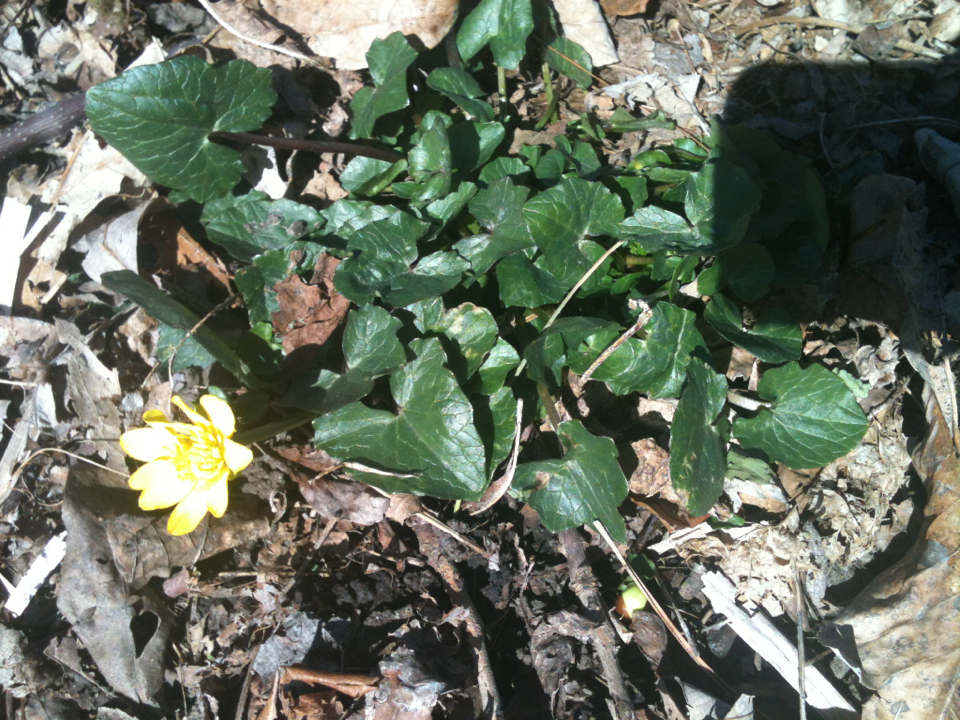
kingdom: Plantae
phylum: Tracheophyta
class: Magnoliopsida
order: Ranunculales
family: Ranunculaceae
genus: Ficaria
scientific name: Ficaria verna
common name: Lesser celandine
